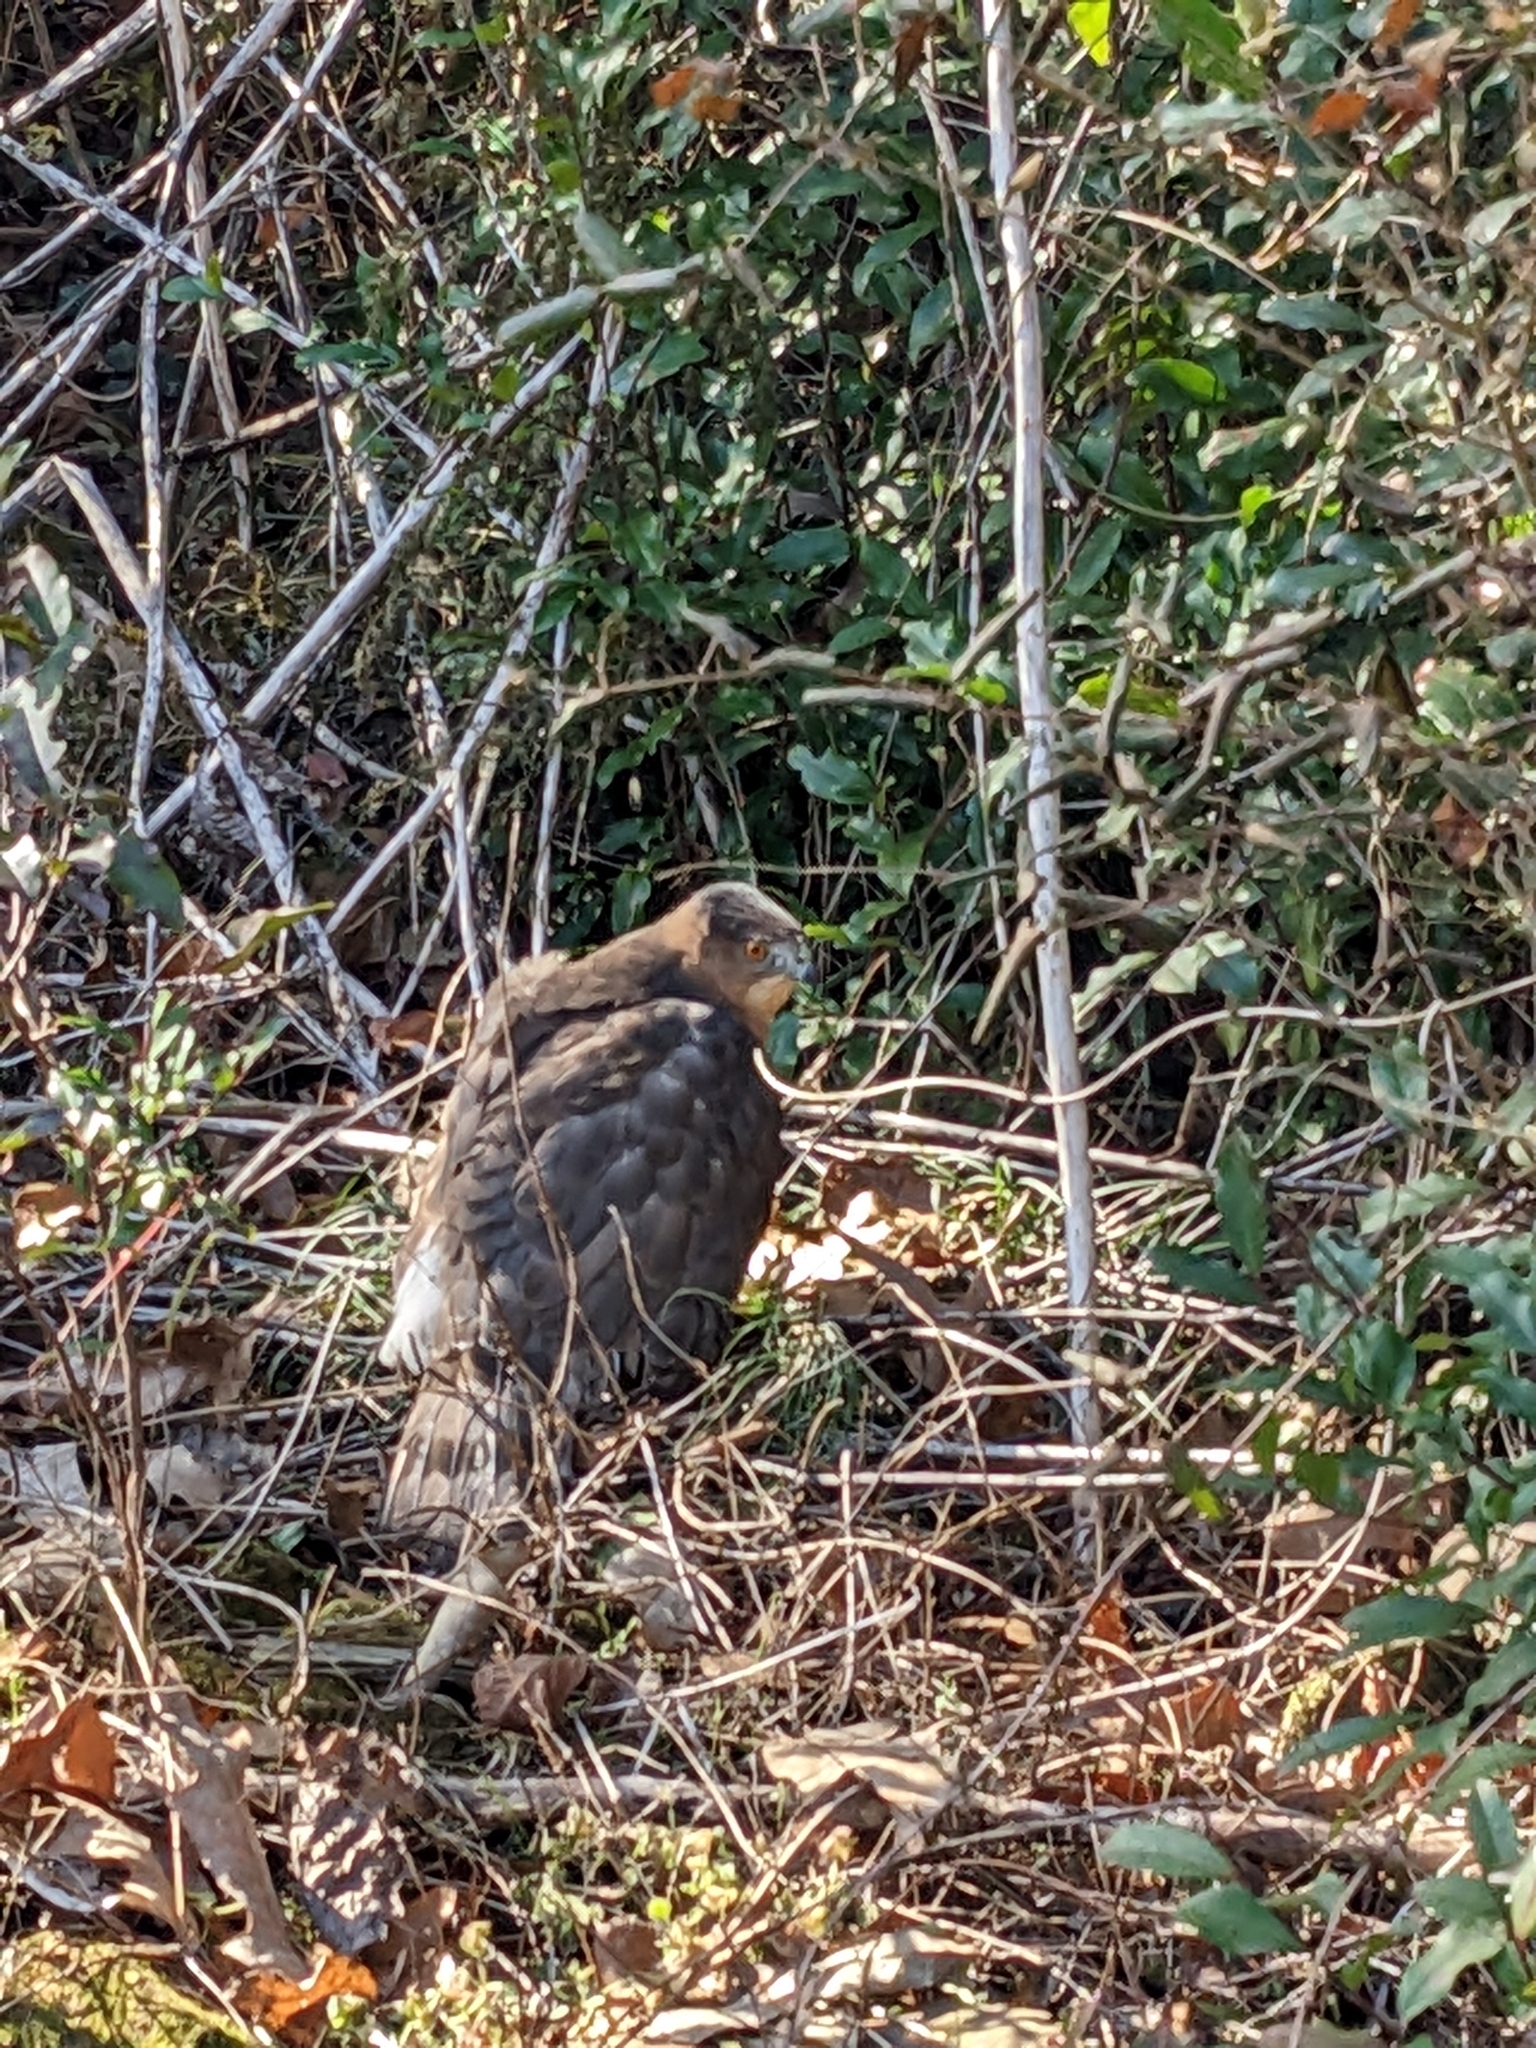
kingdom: Animalia
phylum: Chordata
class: Aves
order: Accipitriformes
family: Accipitridae
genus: Accipiter
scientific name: Accipiter cooperii
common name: Cooper's hawk
